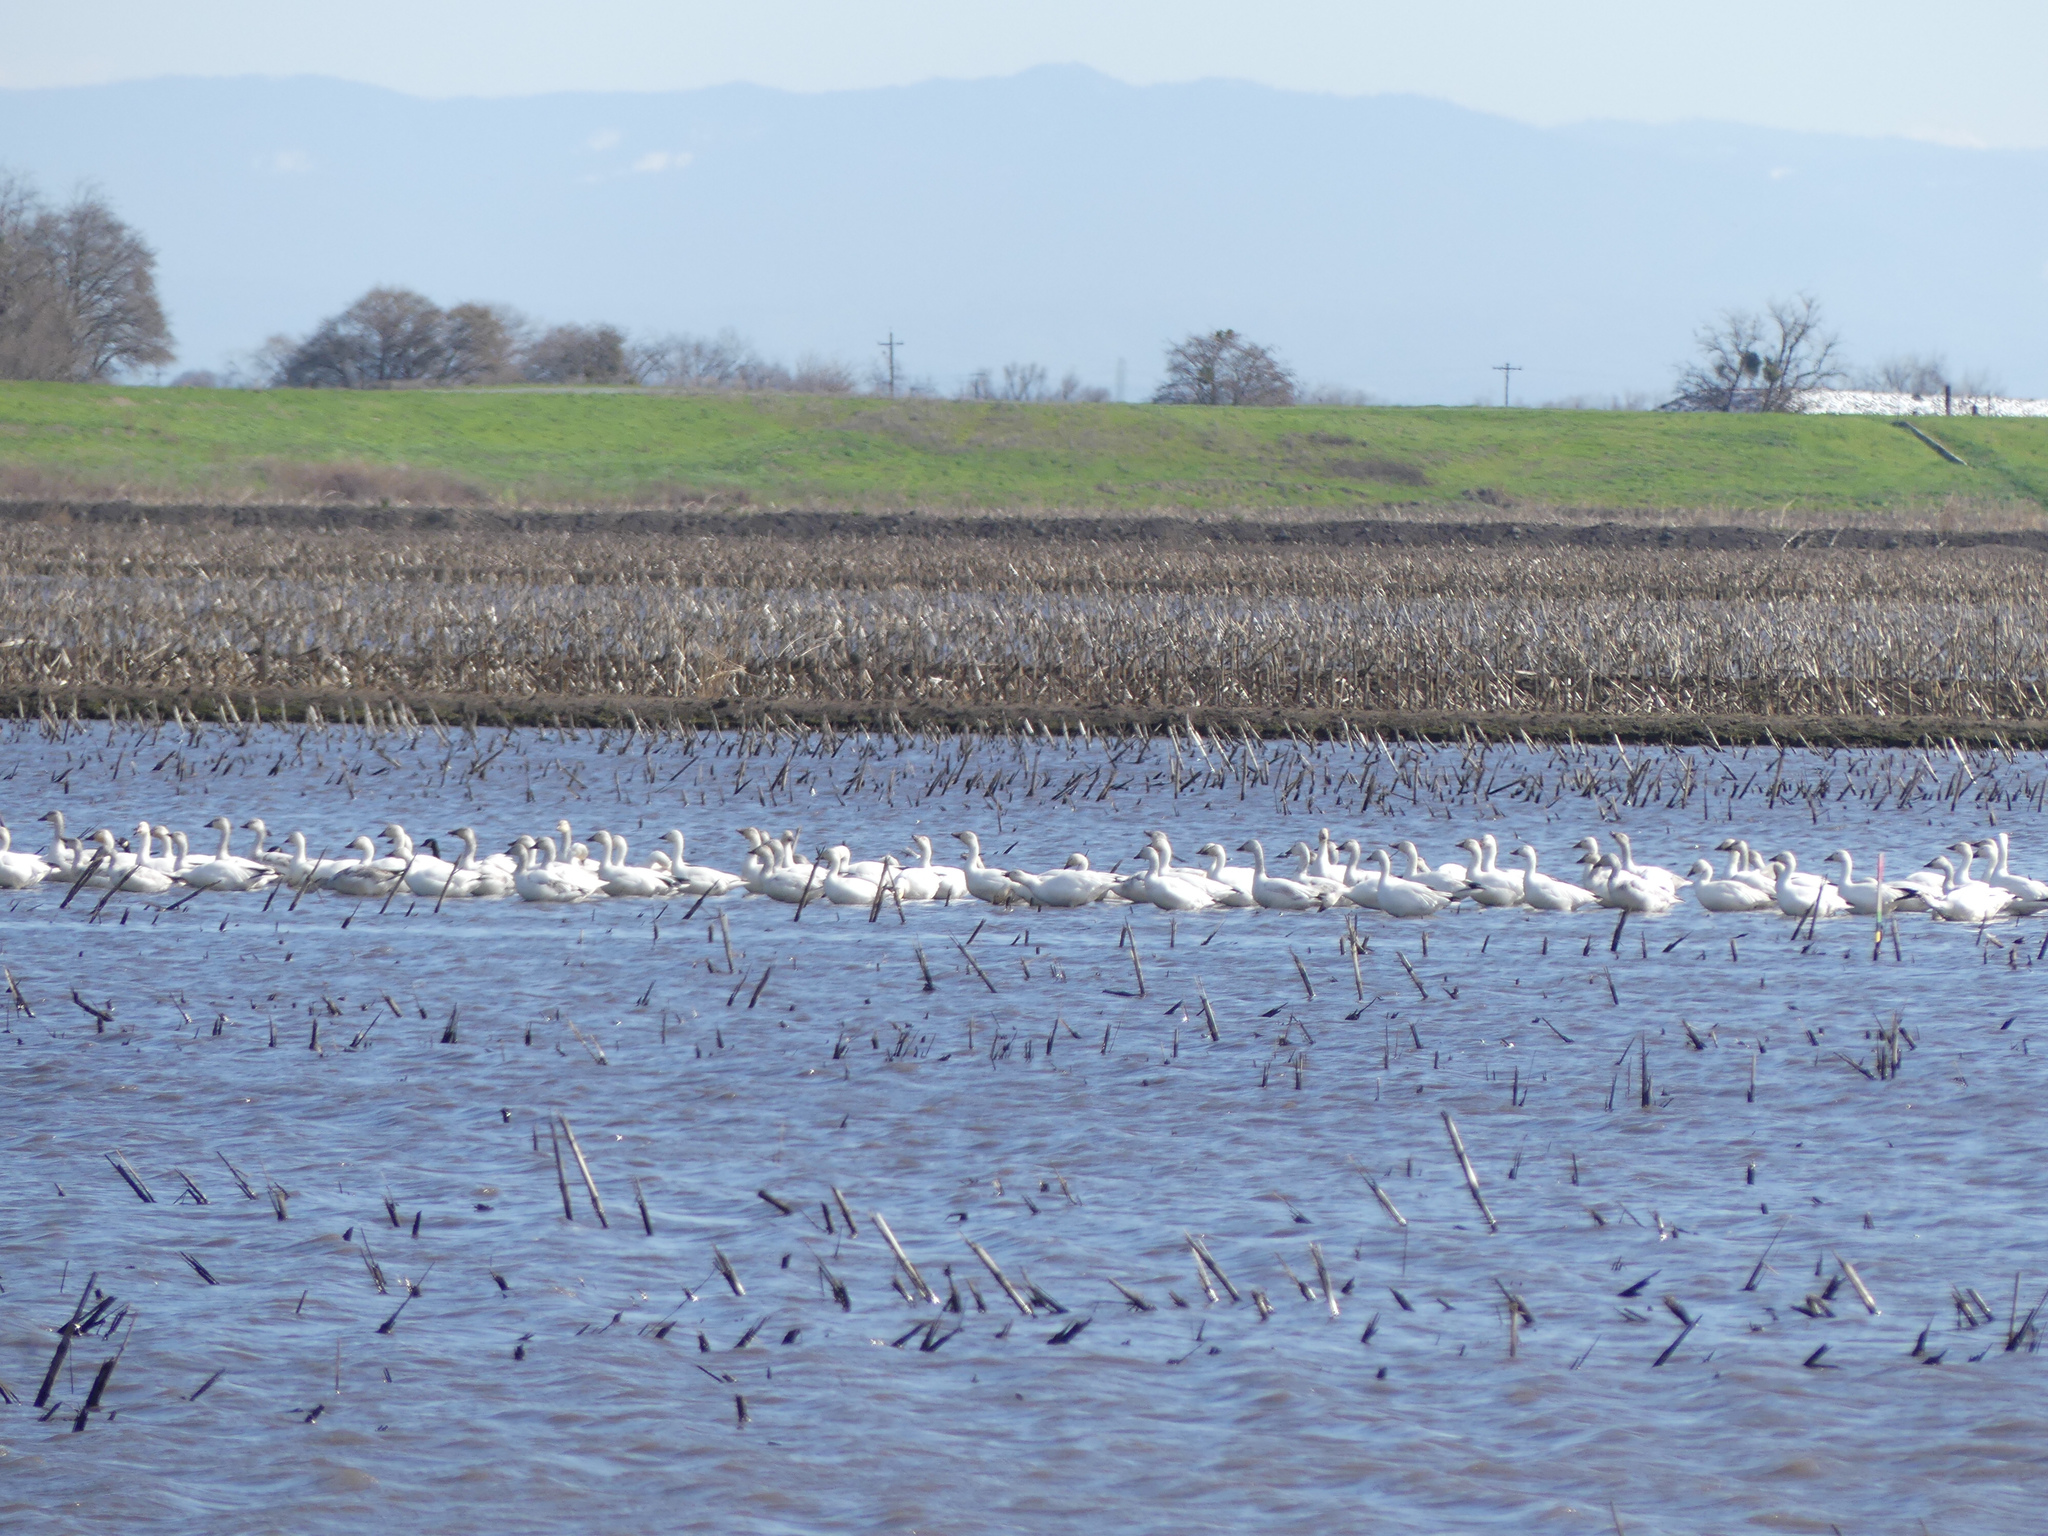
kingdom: Animalia
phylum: Chordata
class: Aves
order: Anseriformes
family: Anatidae
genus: Anser
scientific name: Anser caerulescens
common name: Snow goose
